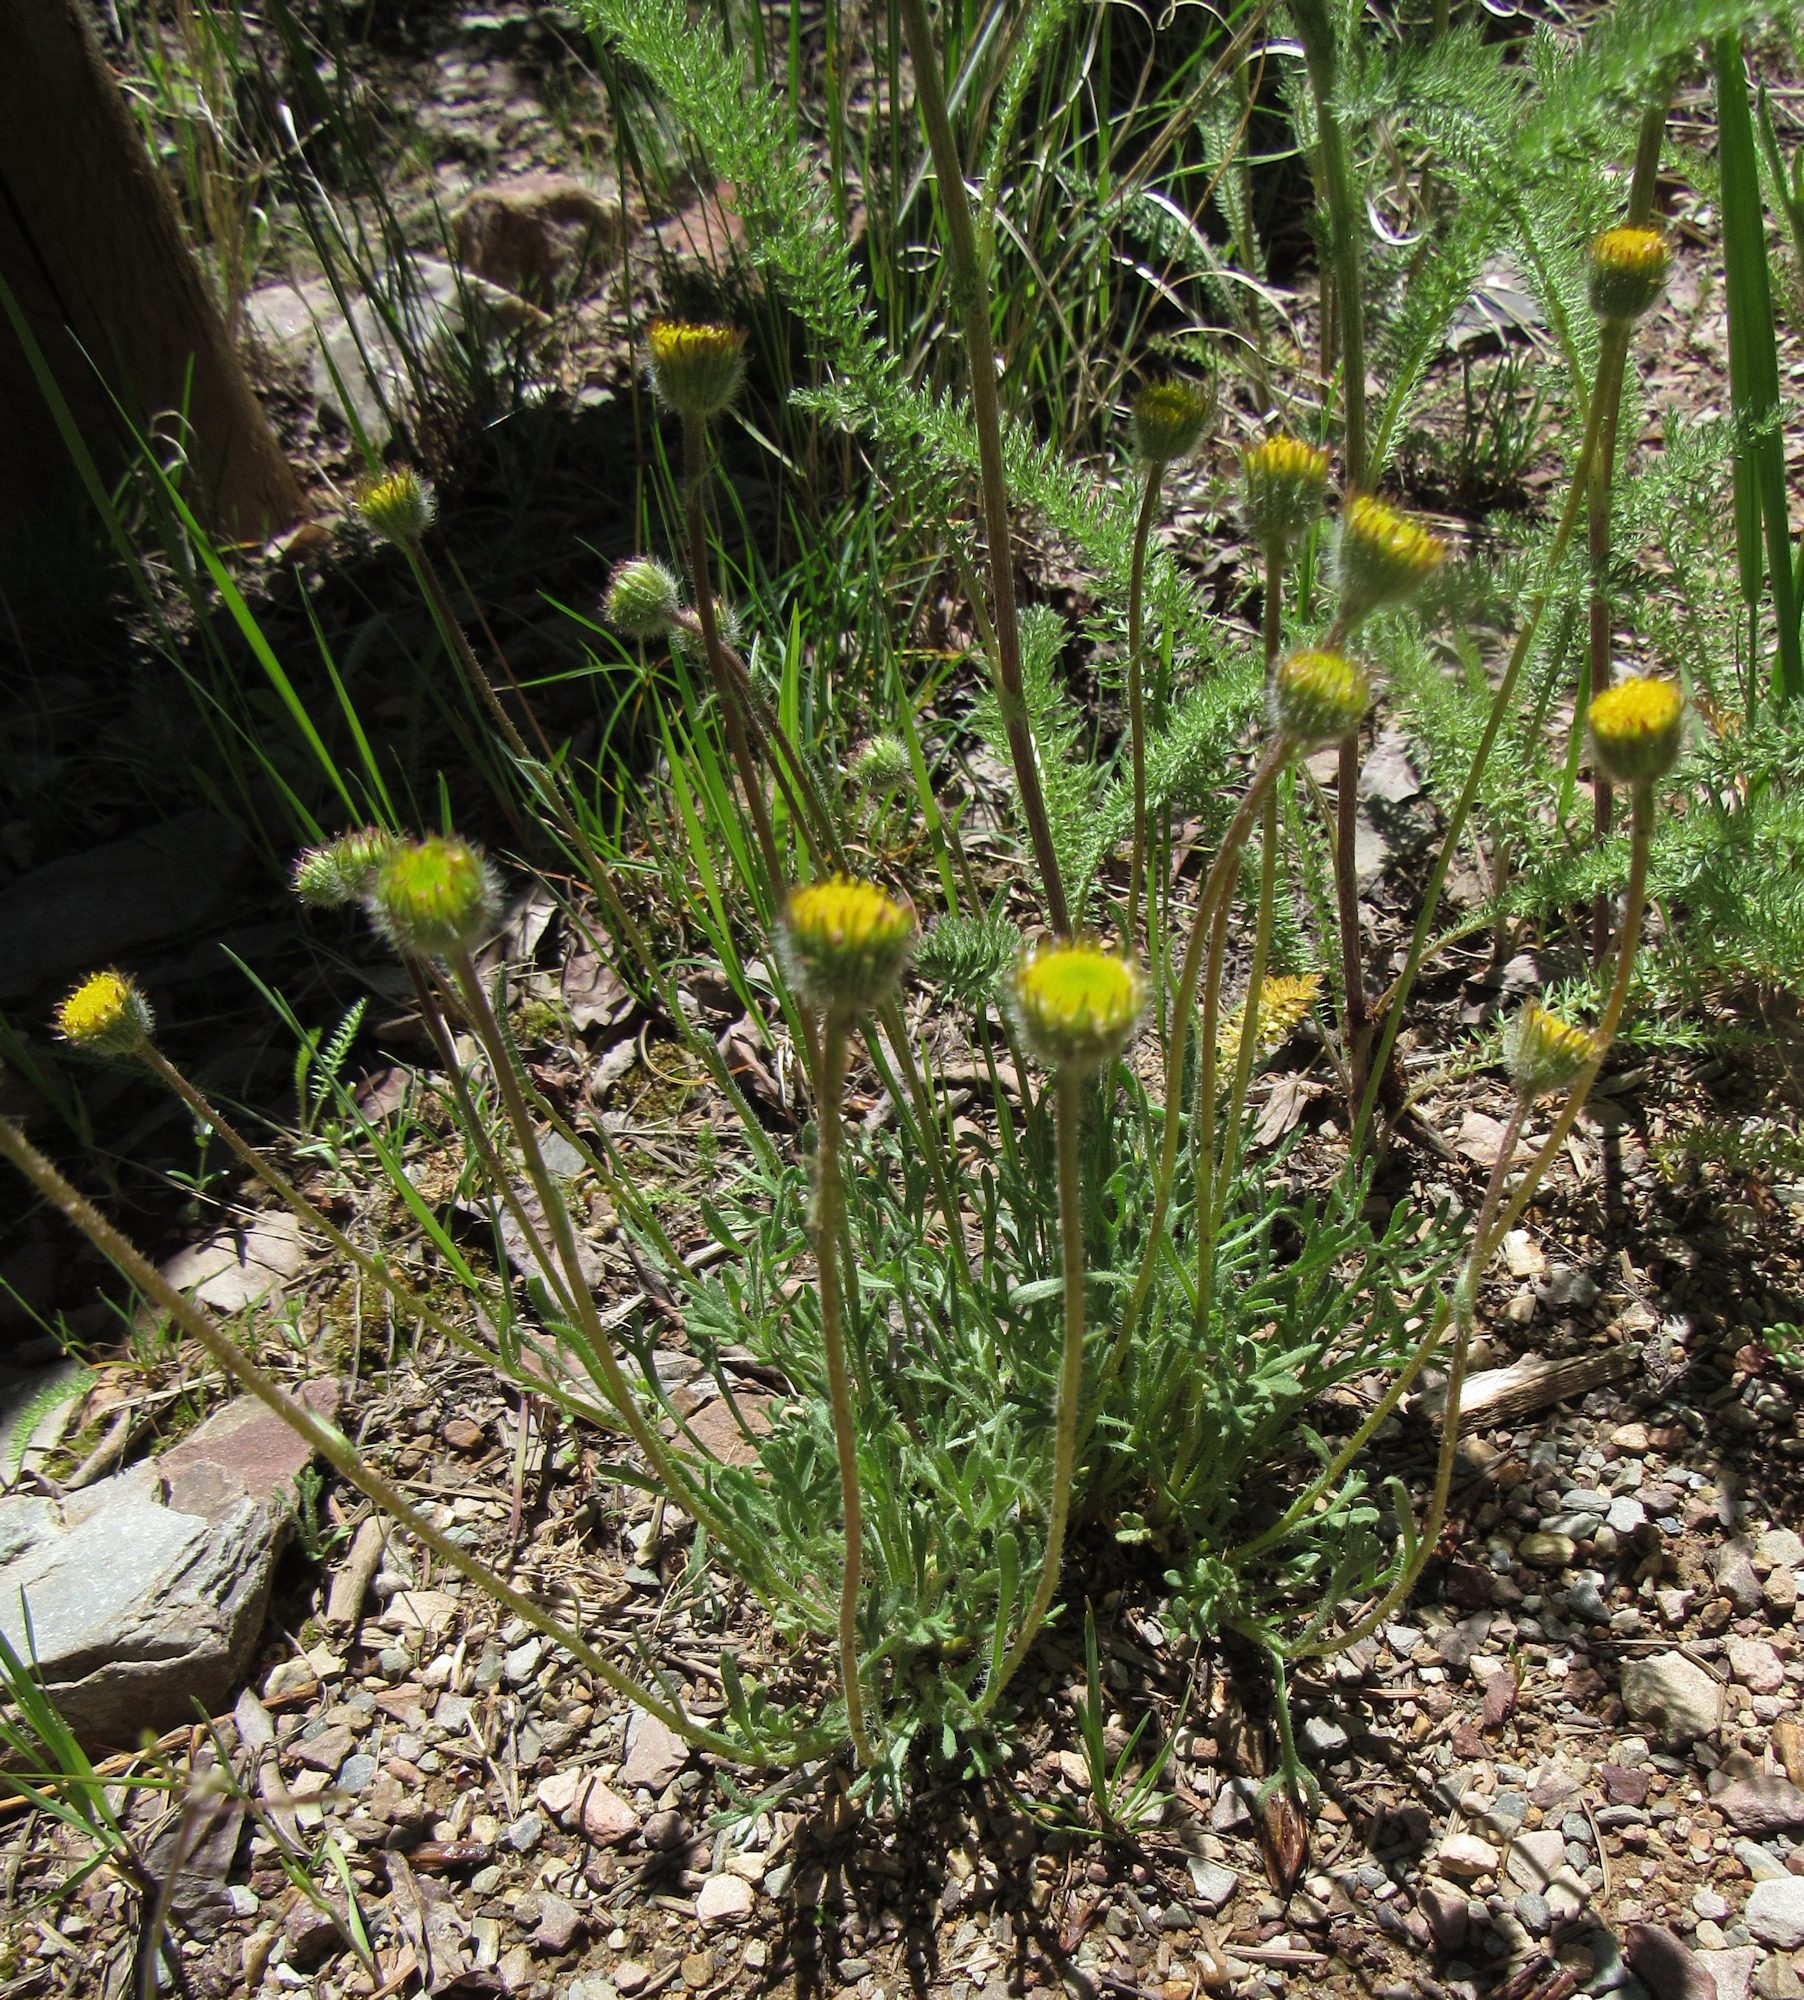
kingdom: Plantae
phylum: Tracheophyta
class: Magnoliopsida
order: Asterales
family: Asteraceae
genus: Erigeron
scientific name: Erigeron compositus
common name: Dwarf mountain fleabane
